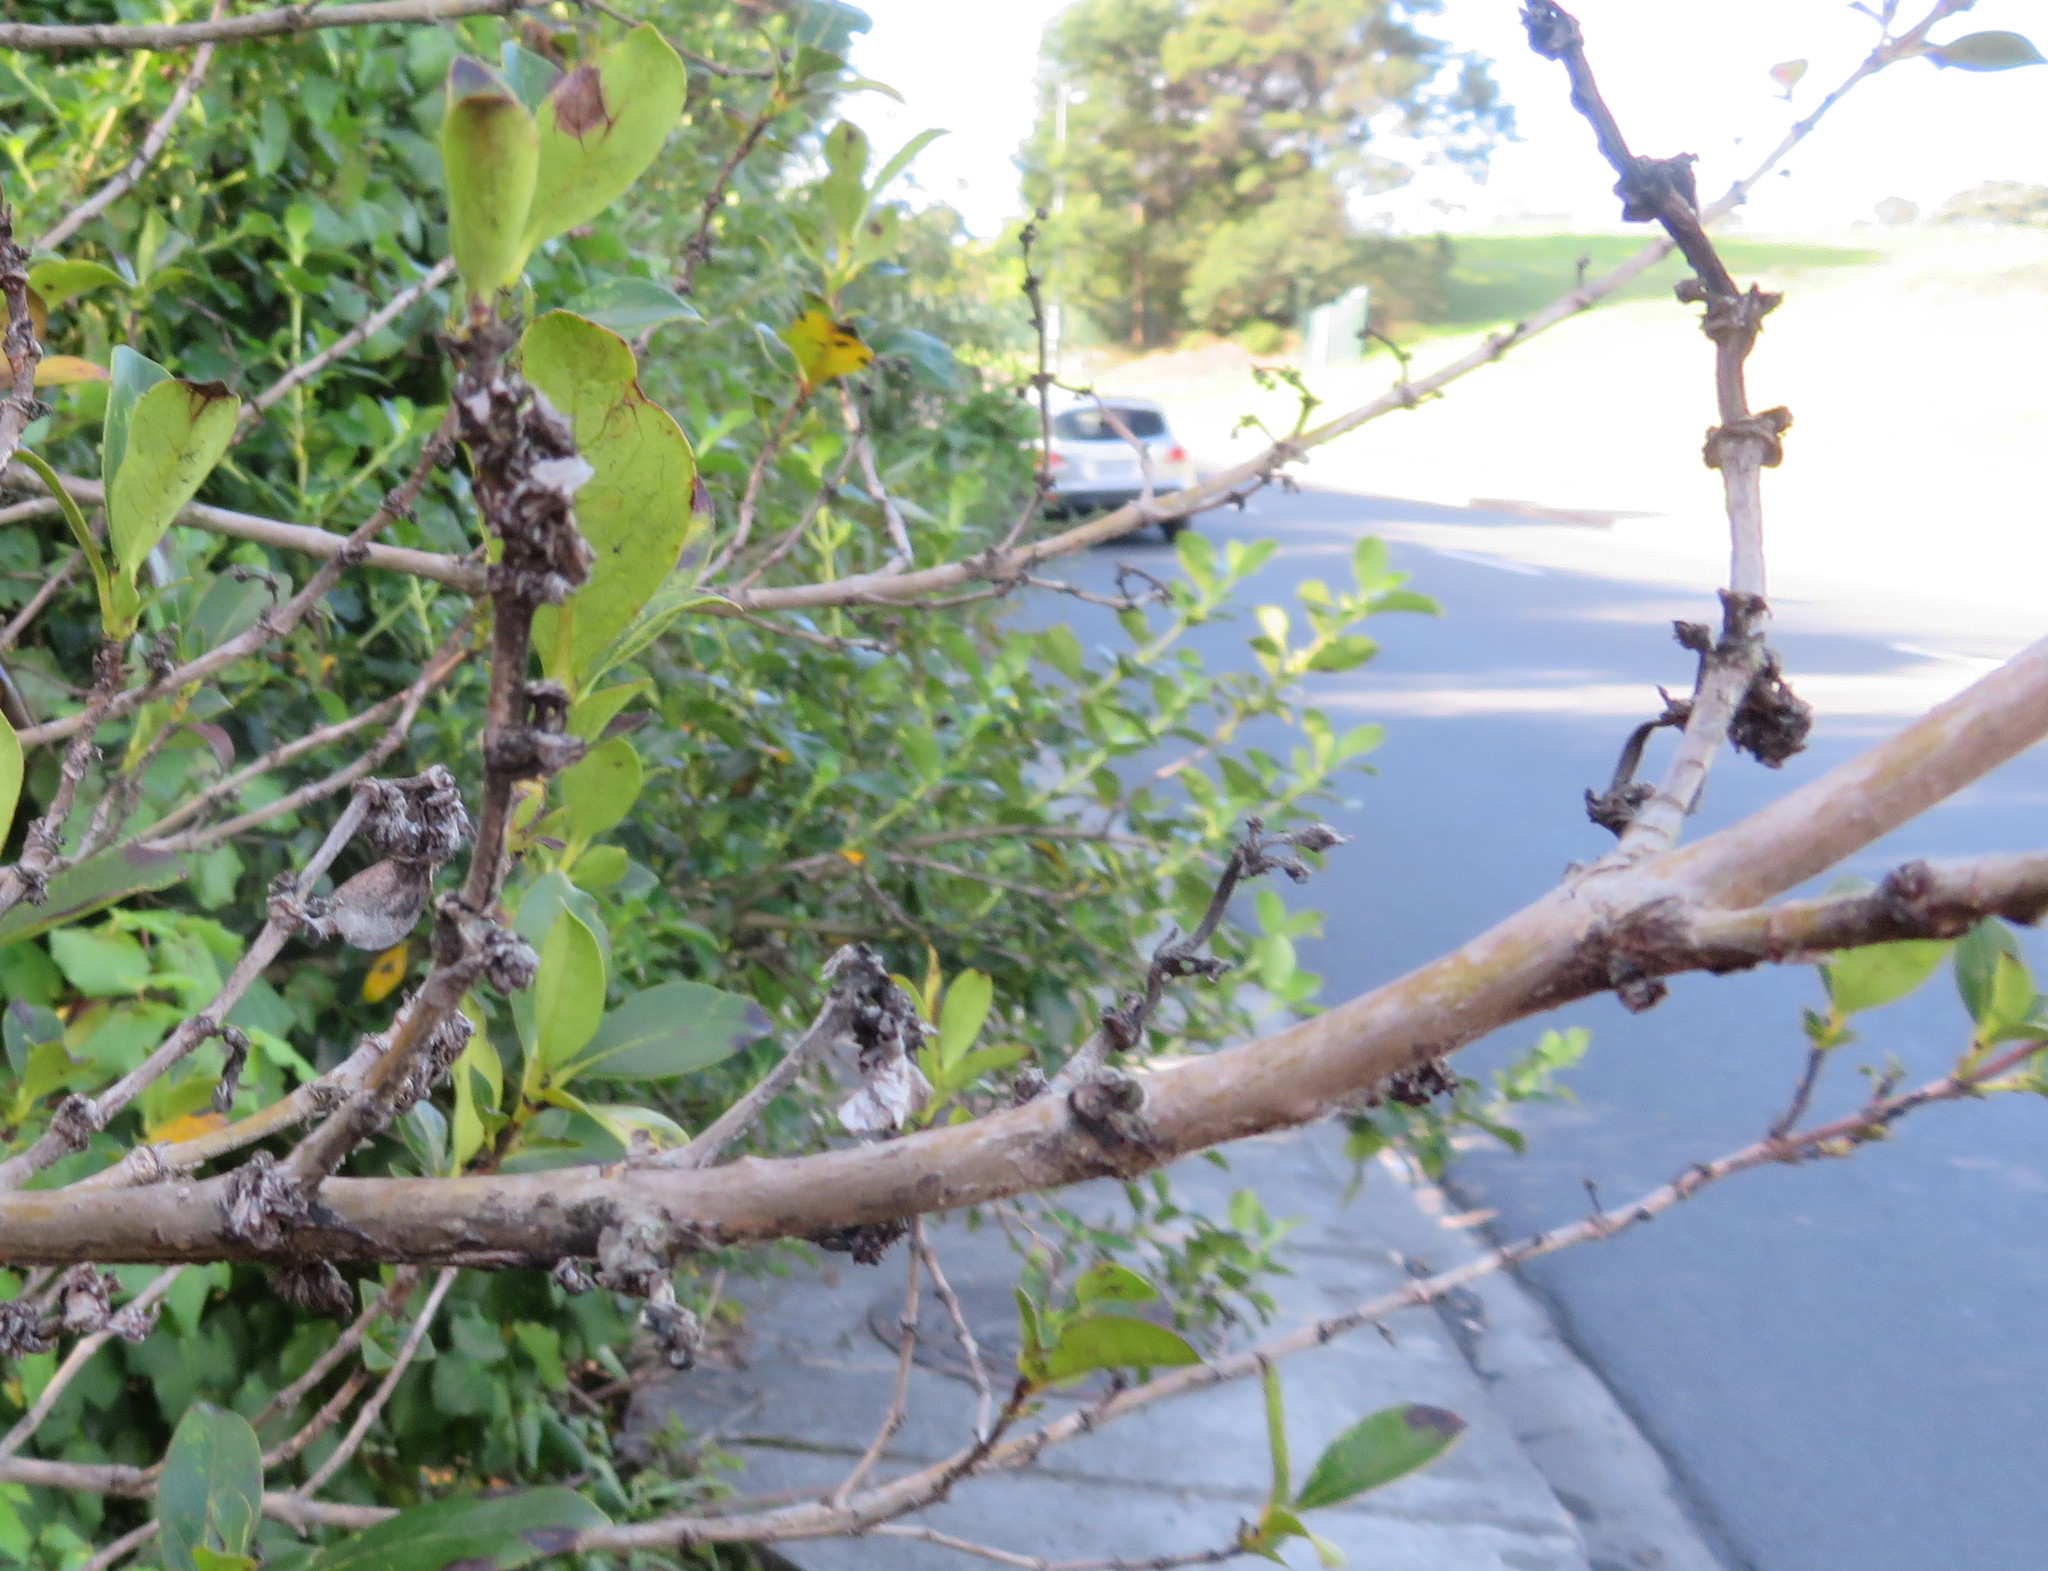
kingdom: Plantae
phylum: Tracheophyta
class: Magnoliopsida
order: Gentianales
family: Rubiaceae
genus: Coprosma
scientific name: Coprosma robusta
